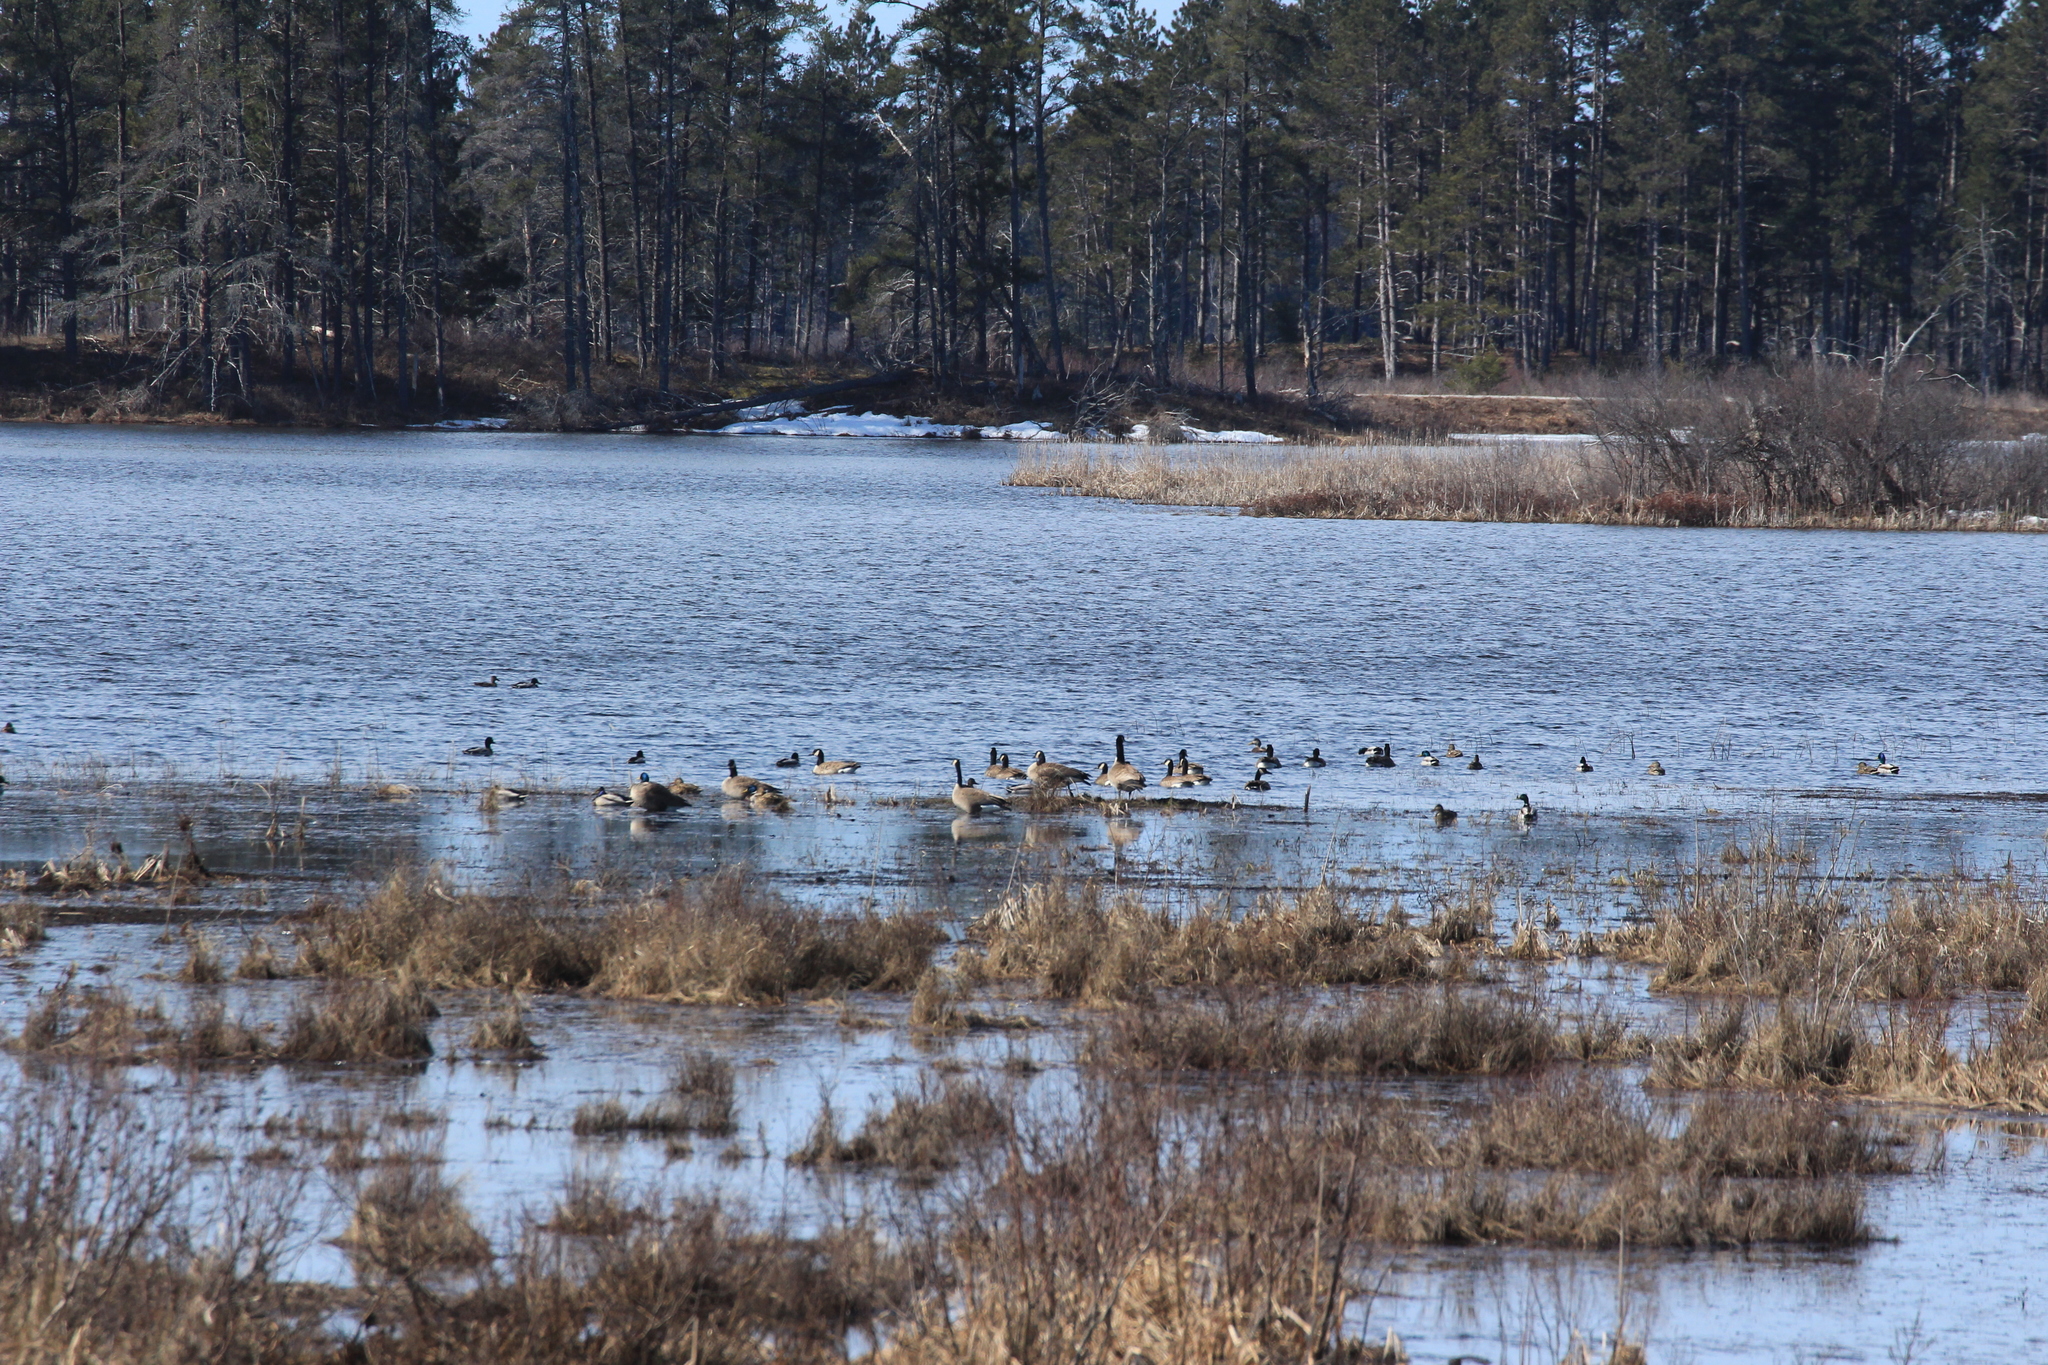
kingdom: Animalia
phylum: Chordata
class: Aves
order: Anseriformes
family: Anatidae
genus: Anas
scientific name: Anas platyrhynchos
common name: Mallard
